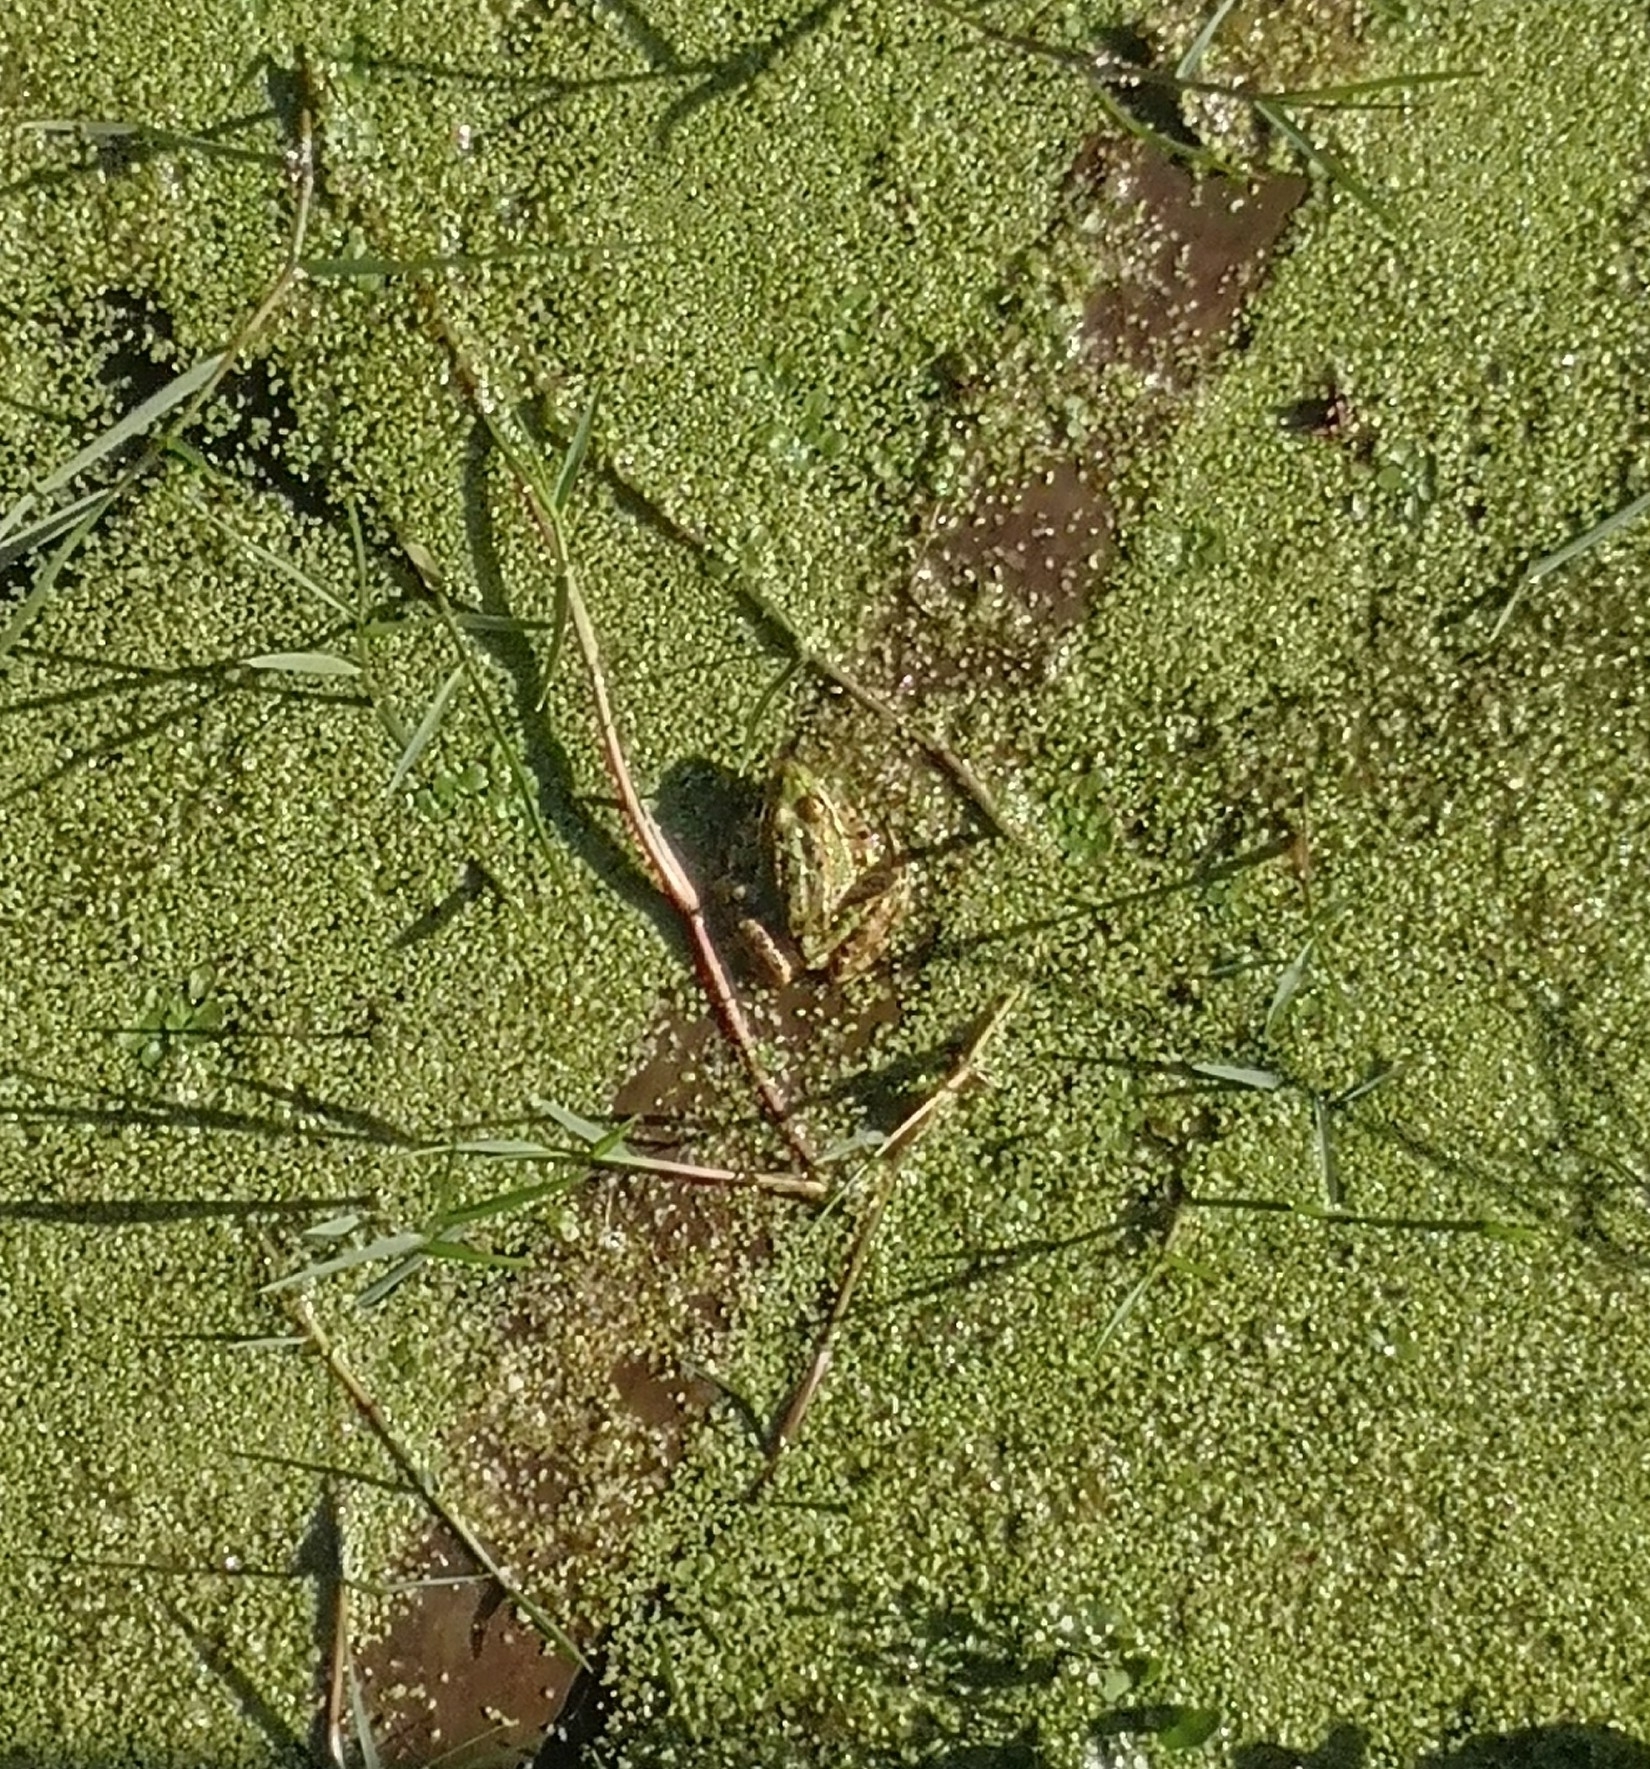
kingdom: Animalia
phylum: Chordata
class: Amphibia
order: Anura
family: Ranidae
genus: Pelophylax
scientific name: Pelophylax perezi
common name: Perez's frog
